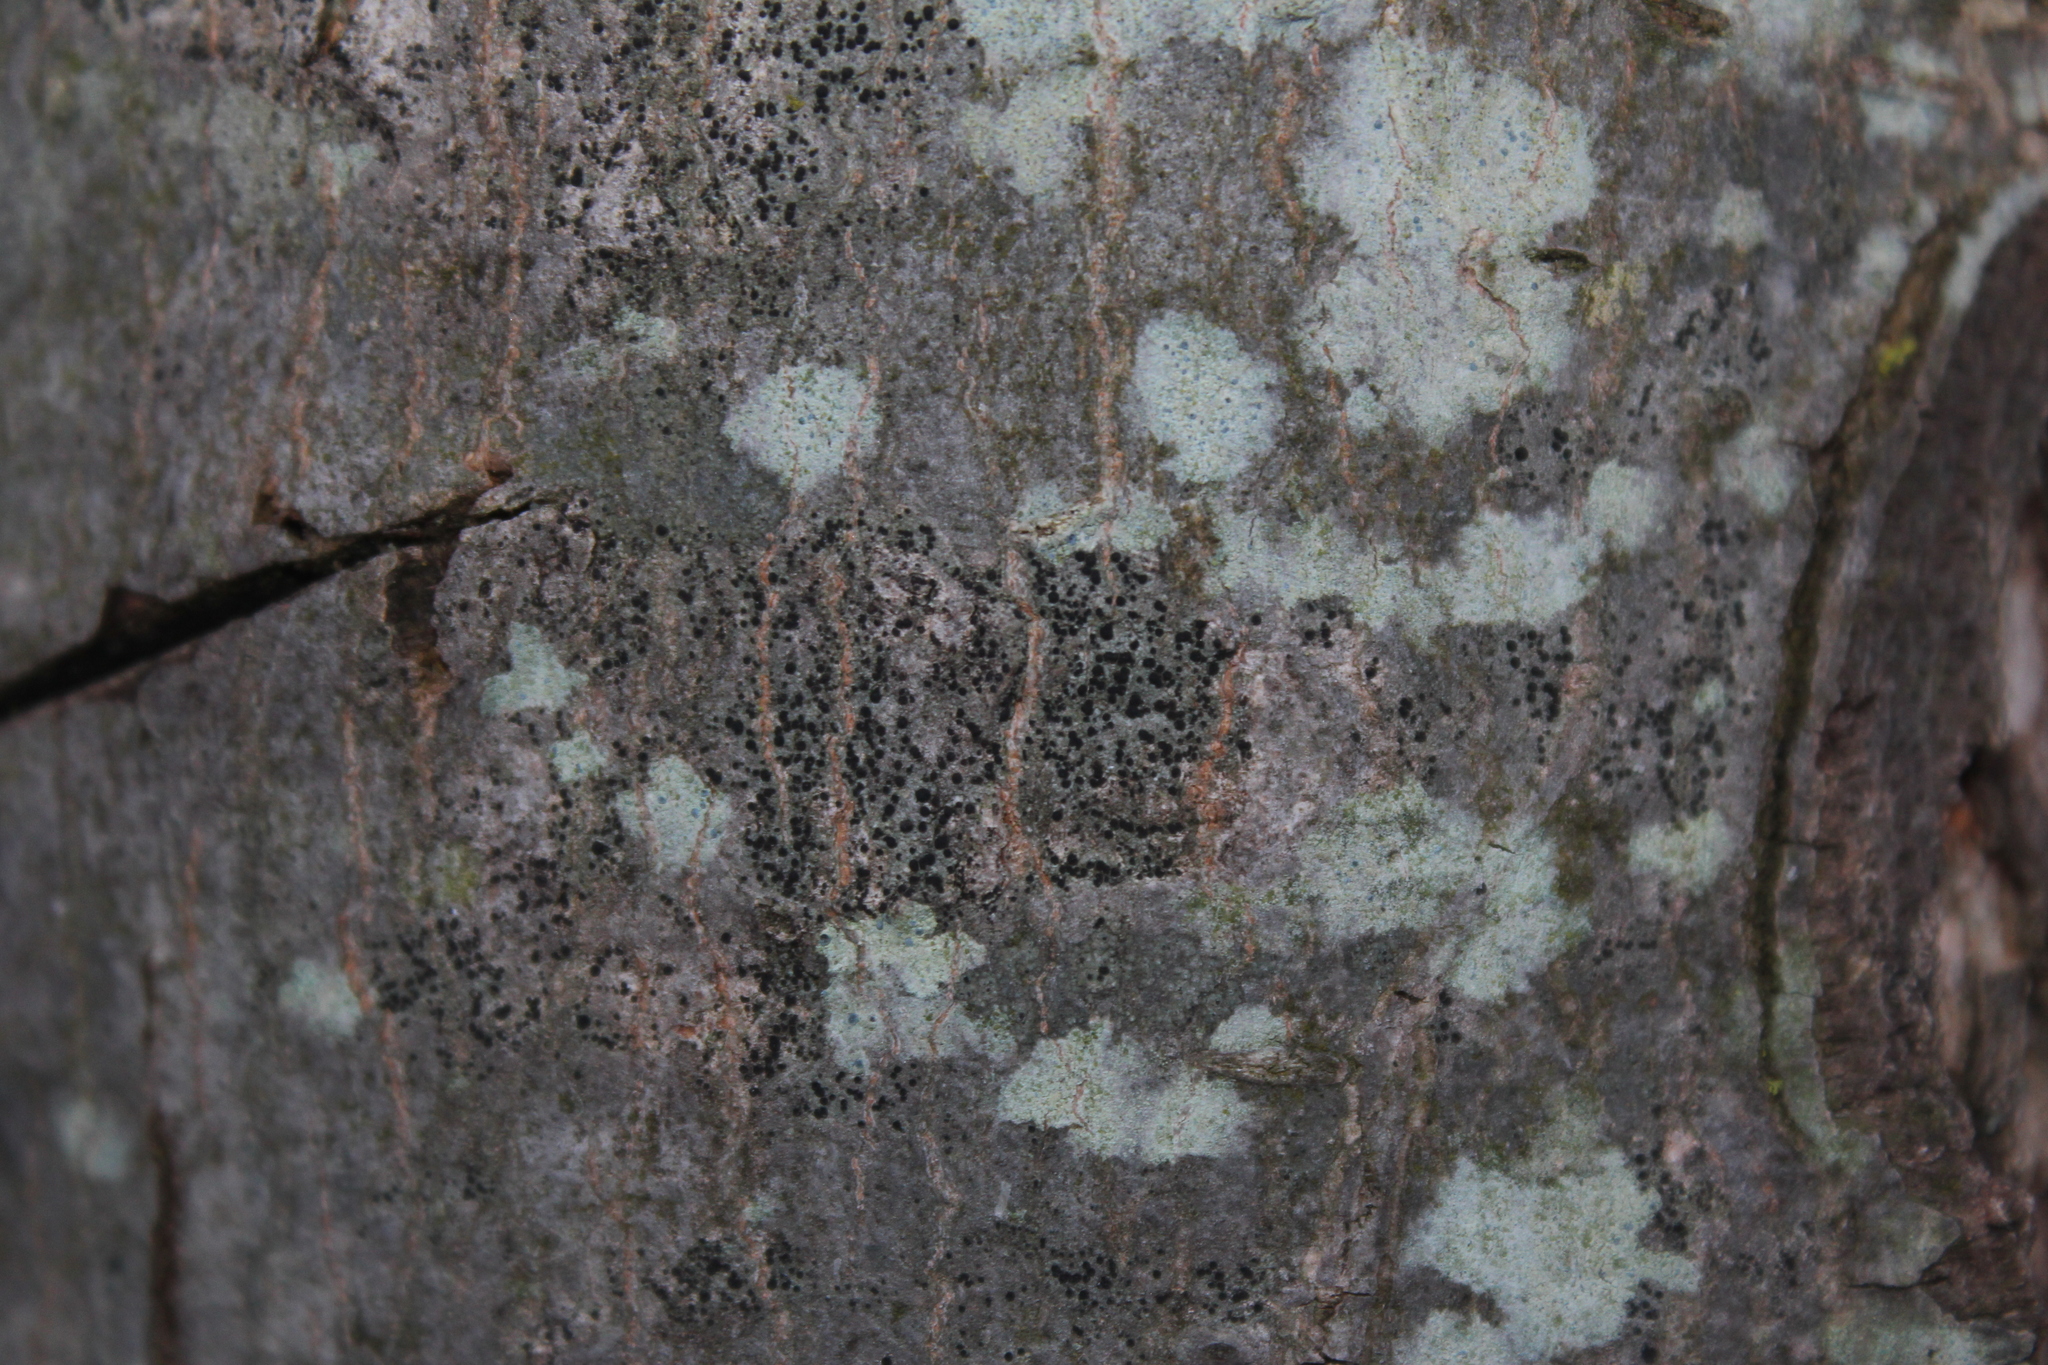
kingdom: Fungi
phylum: Ascomycota
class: Lecanoromycetes
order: Caliciales
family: Caliciaceae
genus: Buellia
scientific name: Buellia erubescens
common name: Common button lichen
